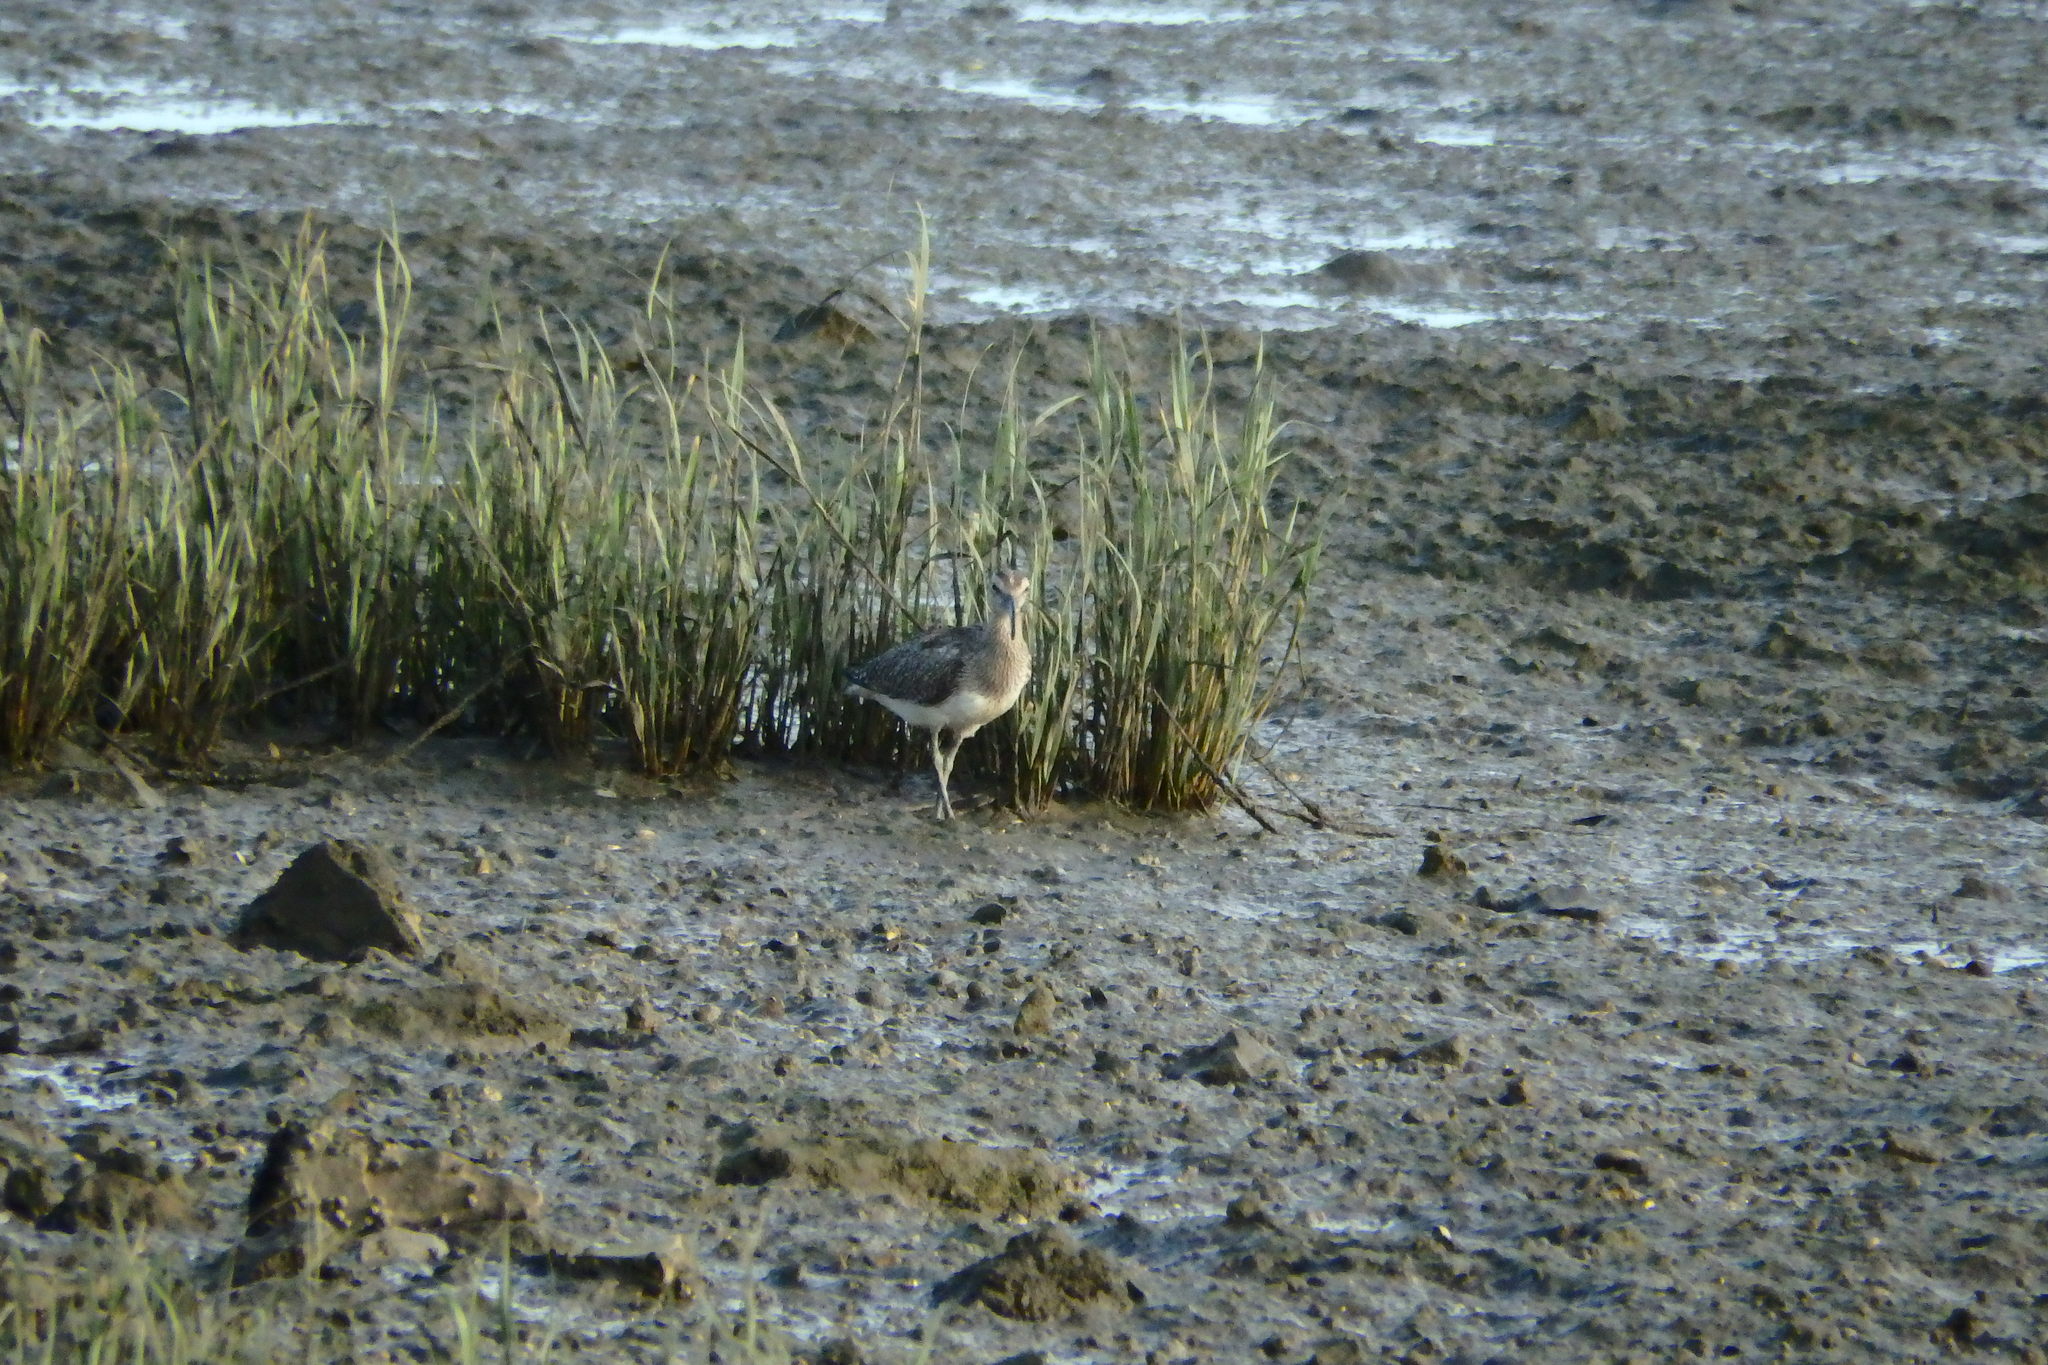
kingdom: Animalia
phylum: Chordata
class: Aves
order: Charadriiformes
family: Scolopacidae
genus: Numenius
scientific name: Numenius phaeopus
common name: Whimbrel
